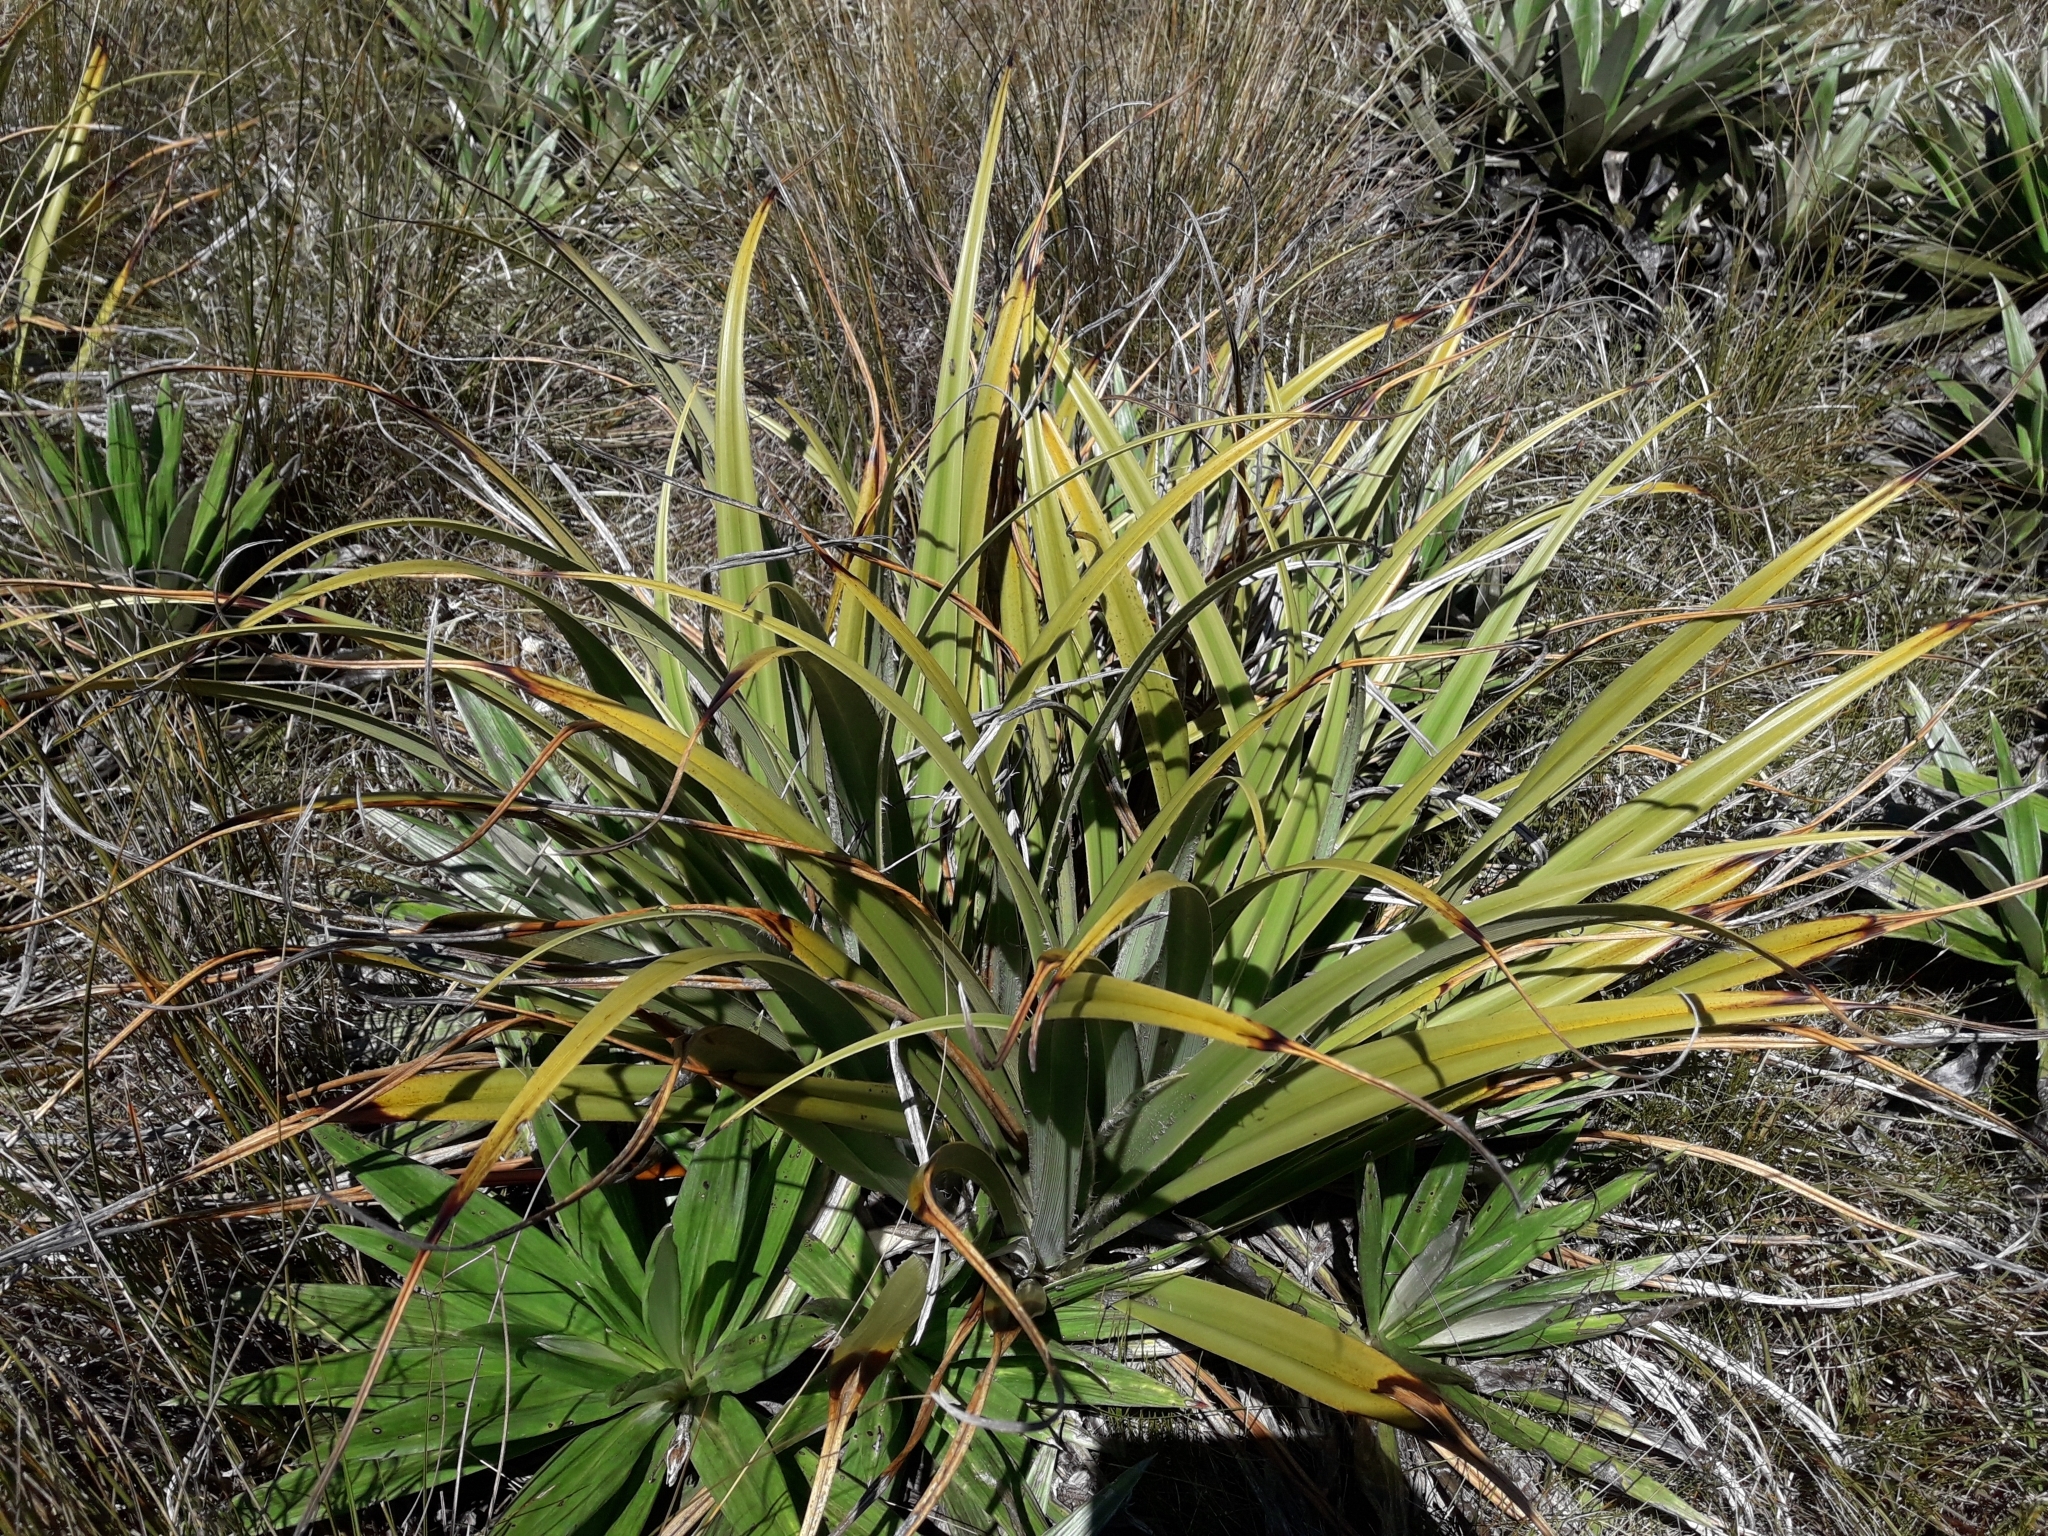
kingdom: Plantae
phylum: Tracheophyta
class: Liliopsida
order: Asparagales
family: Asteliaceae
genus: Astelia
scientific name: Astelia skottsbergii
